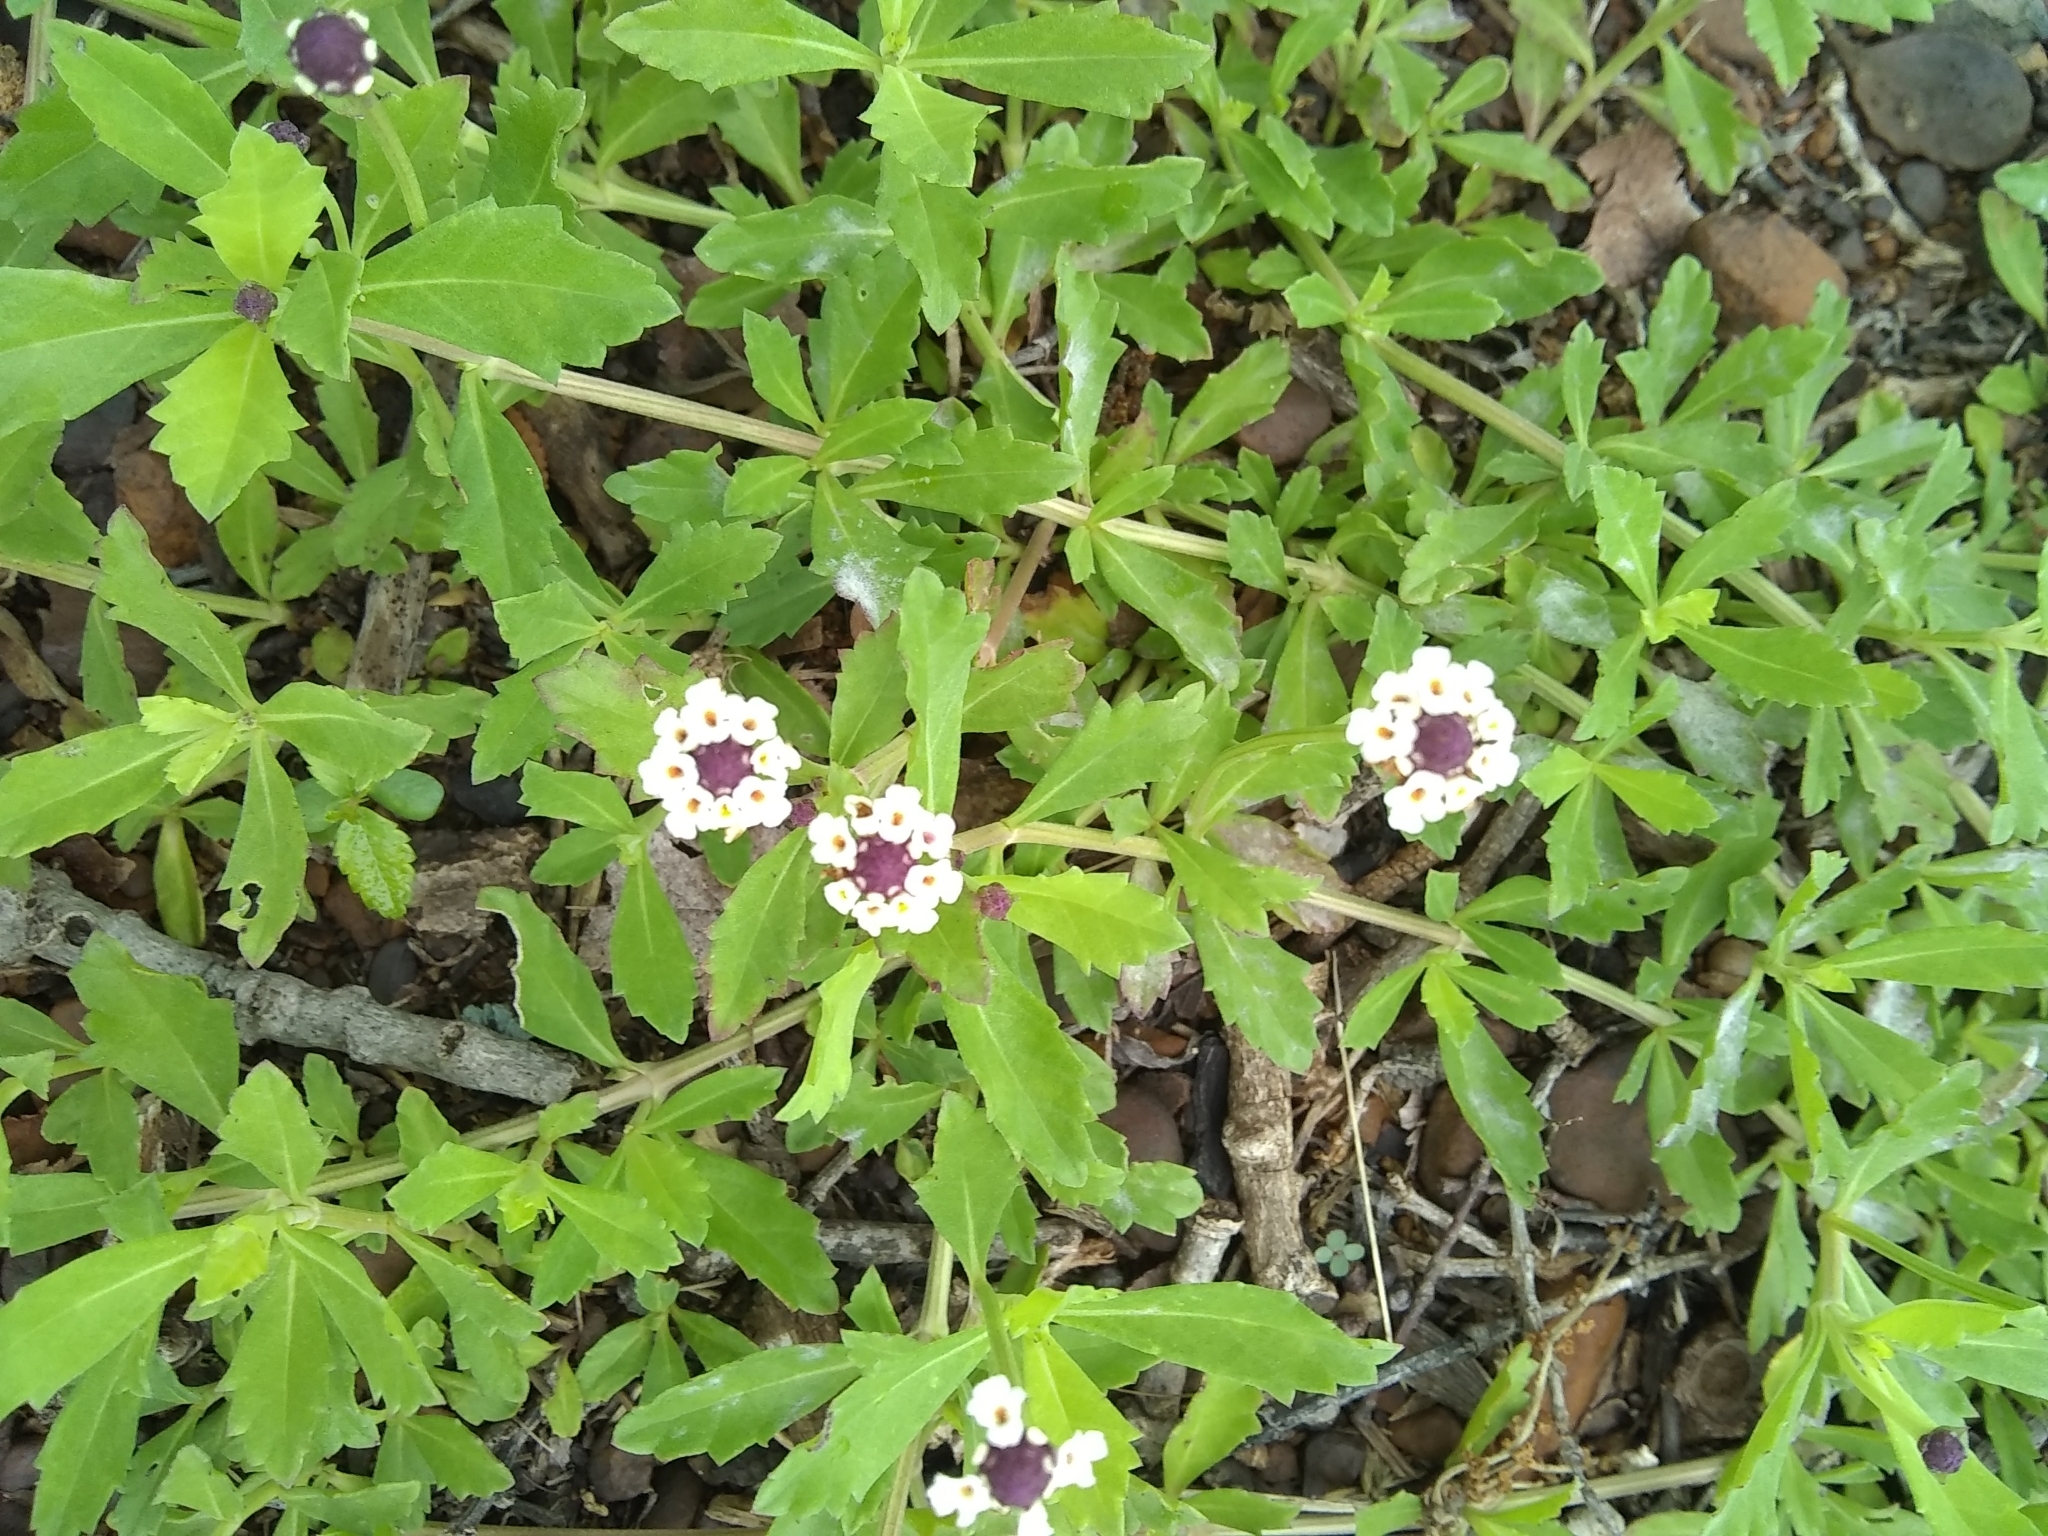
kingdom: Plantae
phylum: Tracheophyta
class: Magnoliopsida
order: Lamiales
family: Verbenaceae
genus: Phyla
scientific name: Phyla nodiflora
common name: Frogfruit
